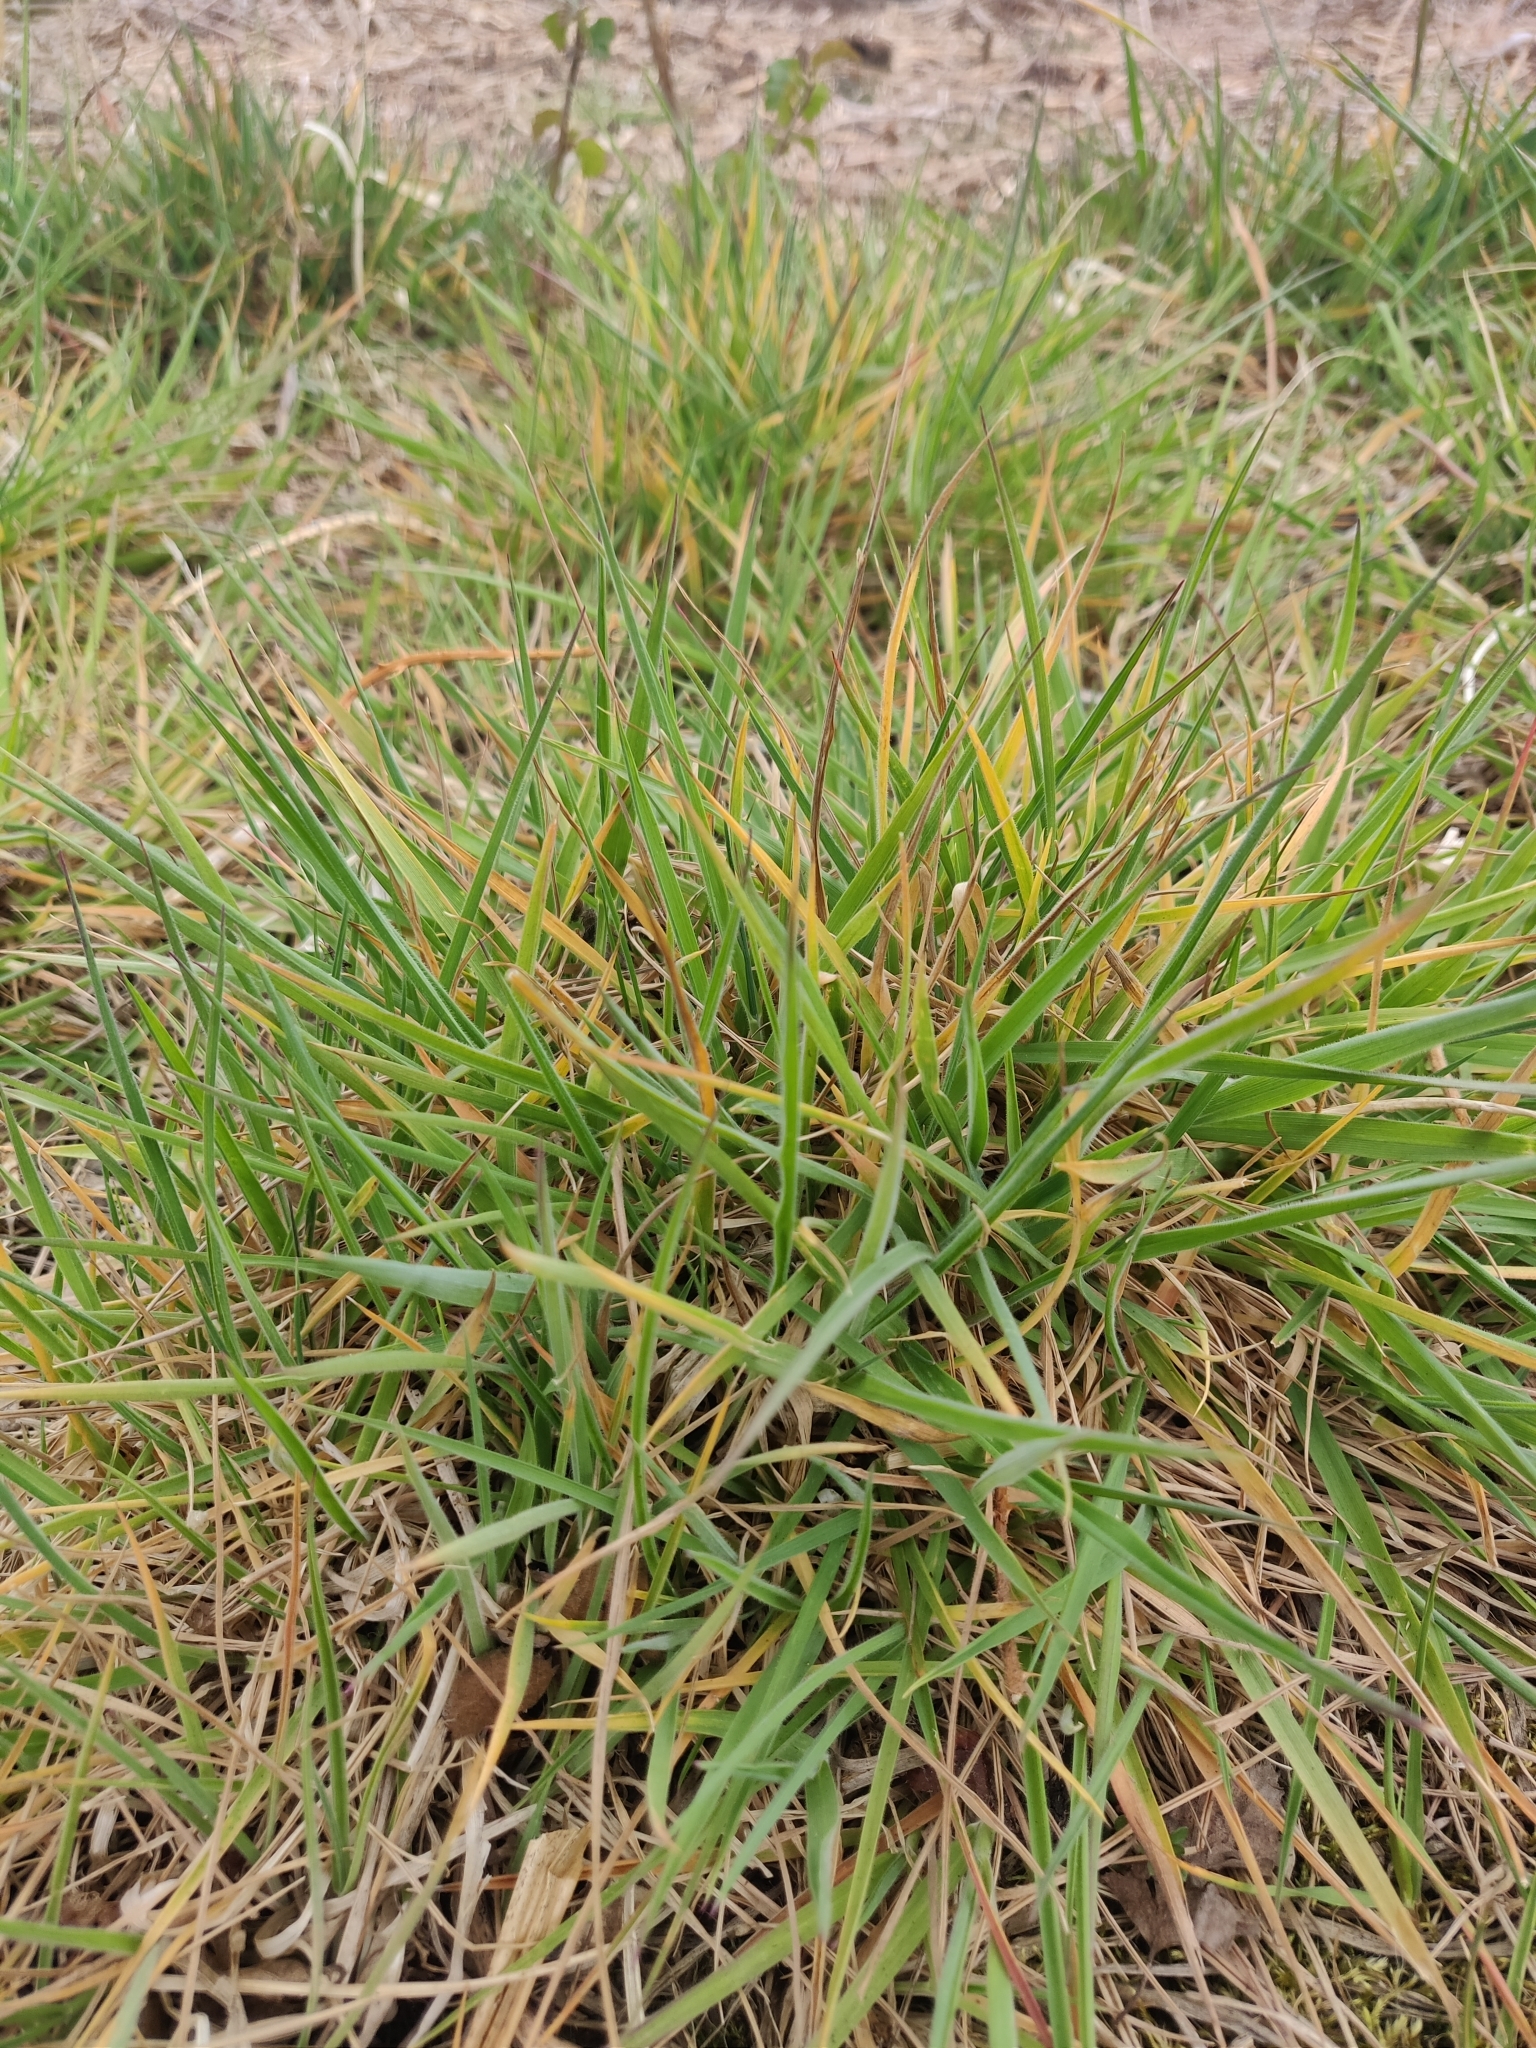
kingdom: Plantae
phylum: Tracheophyta
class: Liliopsida
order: Poales
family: Poaceae
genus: Holcus
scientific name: Holcus lanatus
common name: Yorkshire-fog
